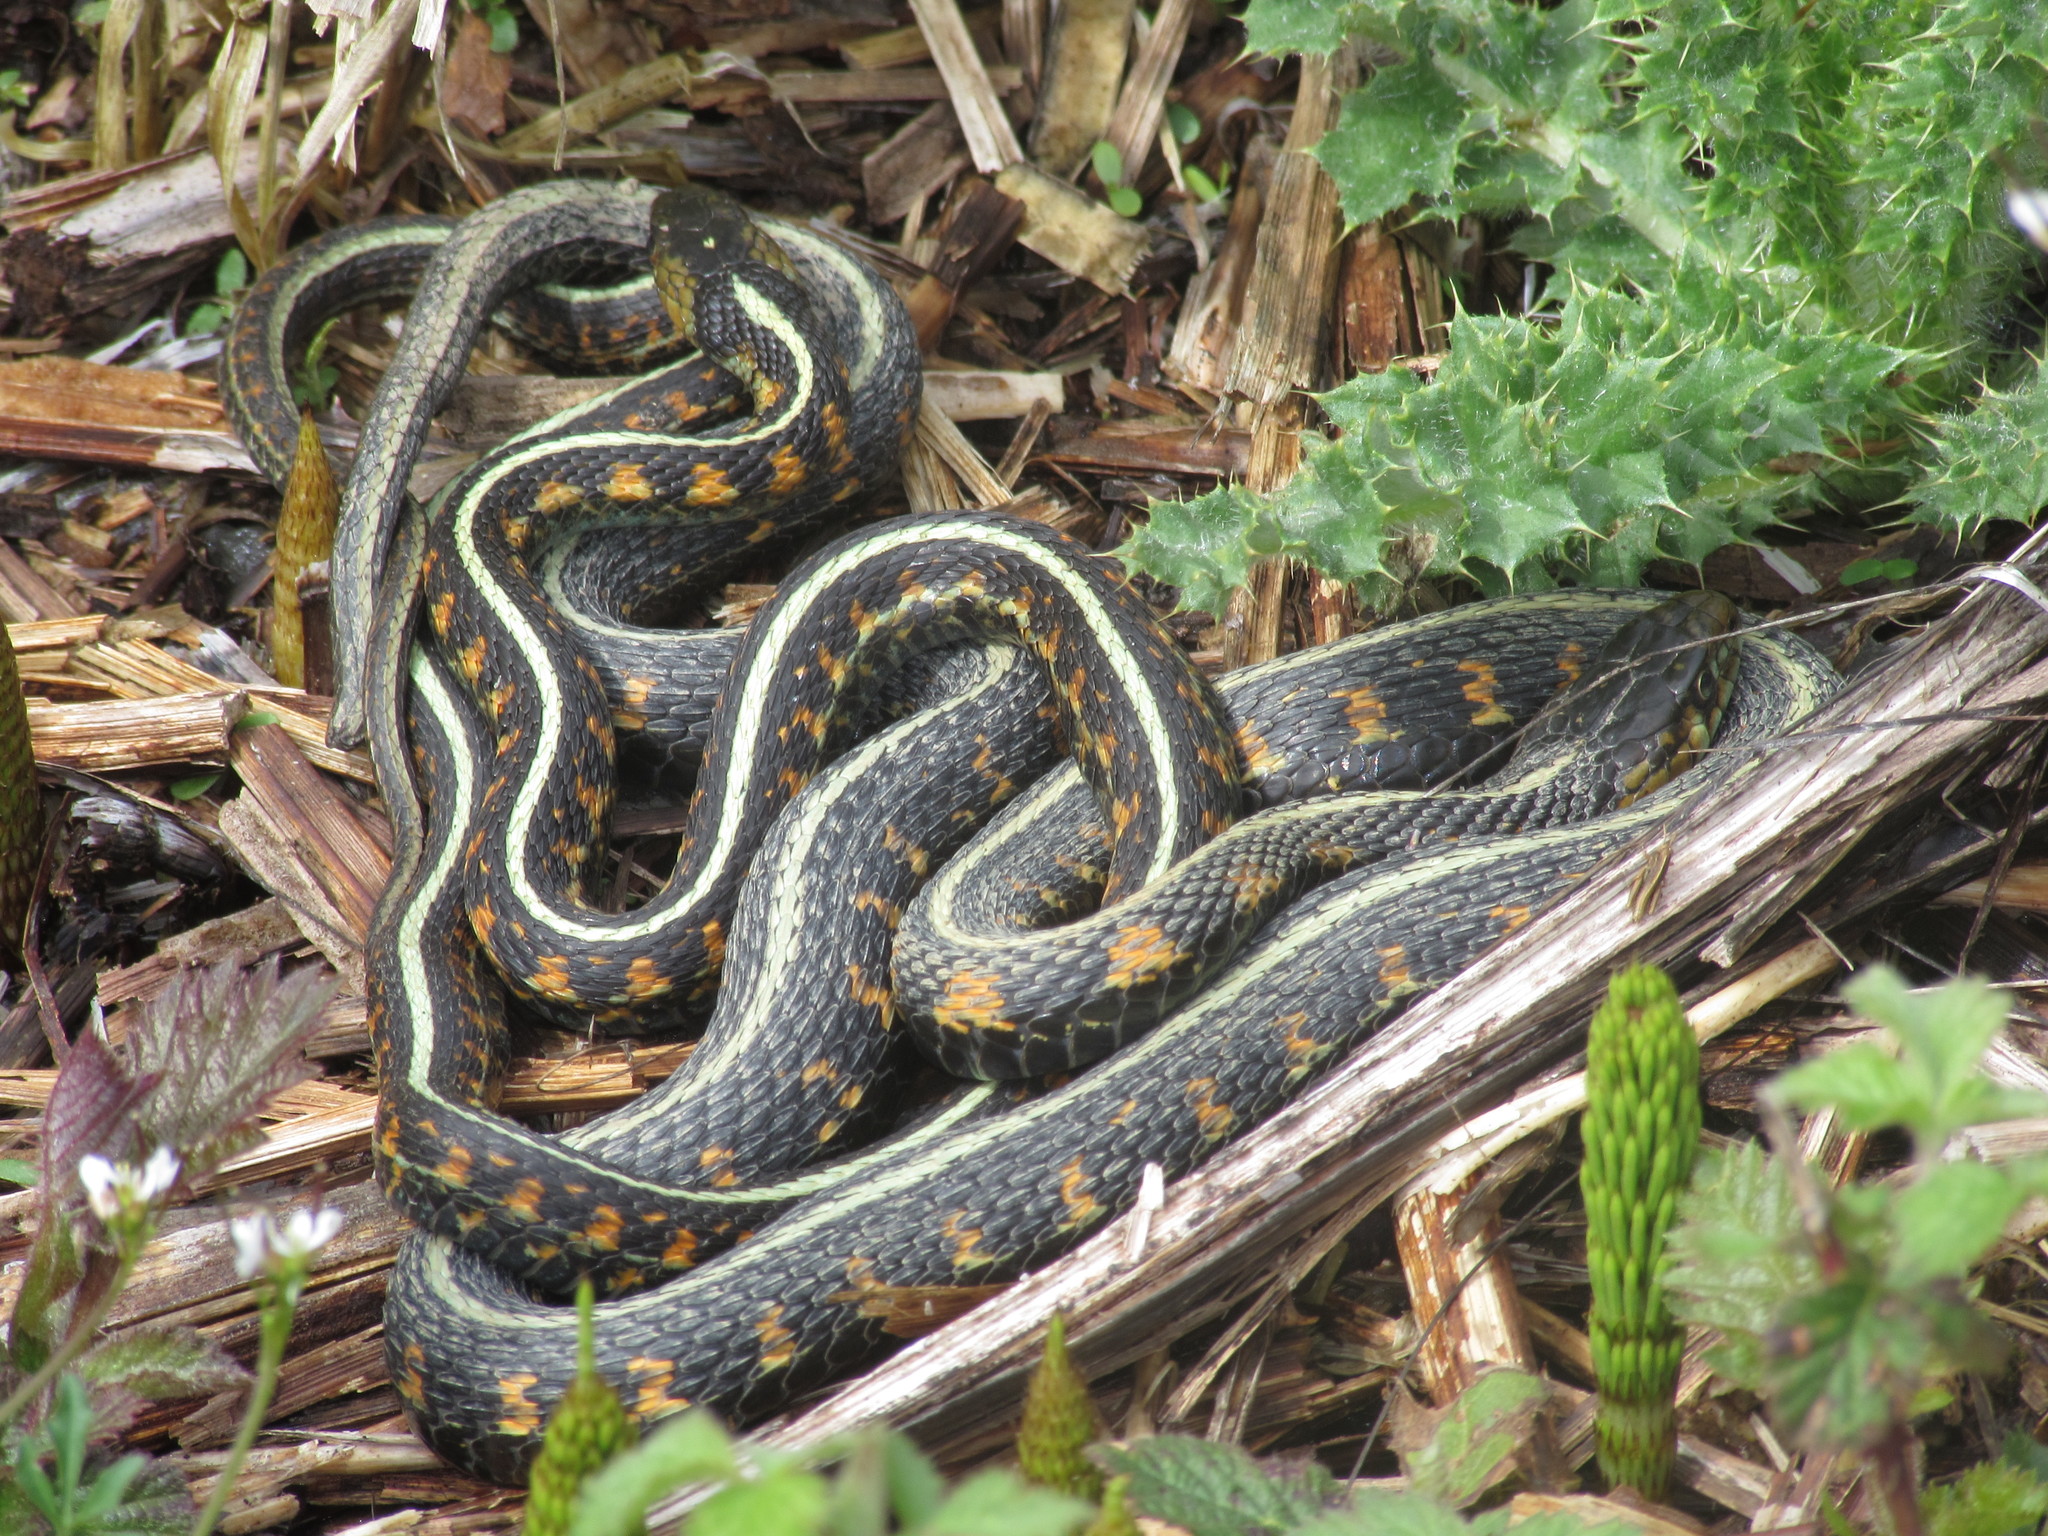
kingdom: Animalia
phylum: Chordata
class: Squamata
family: Colubridae
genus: Thamnophis
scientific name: Thamnophis sirtalis
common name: Common garter snake
